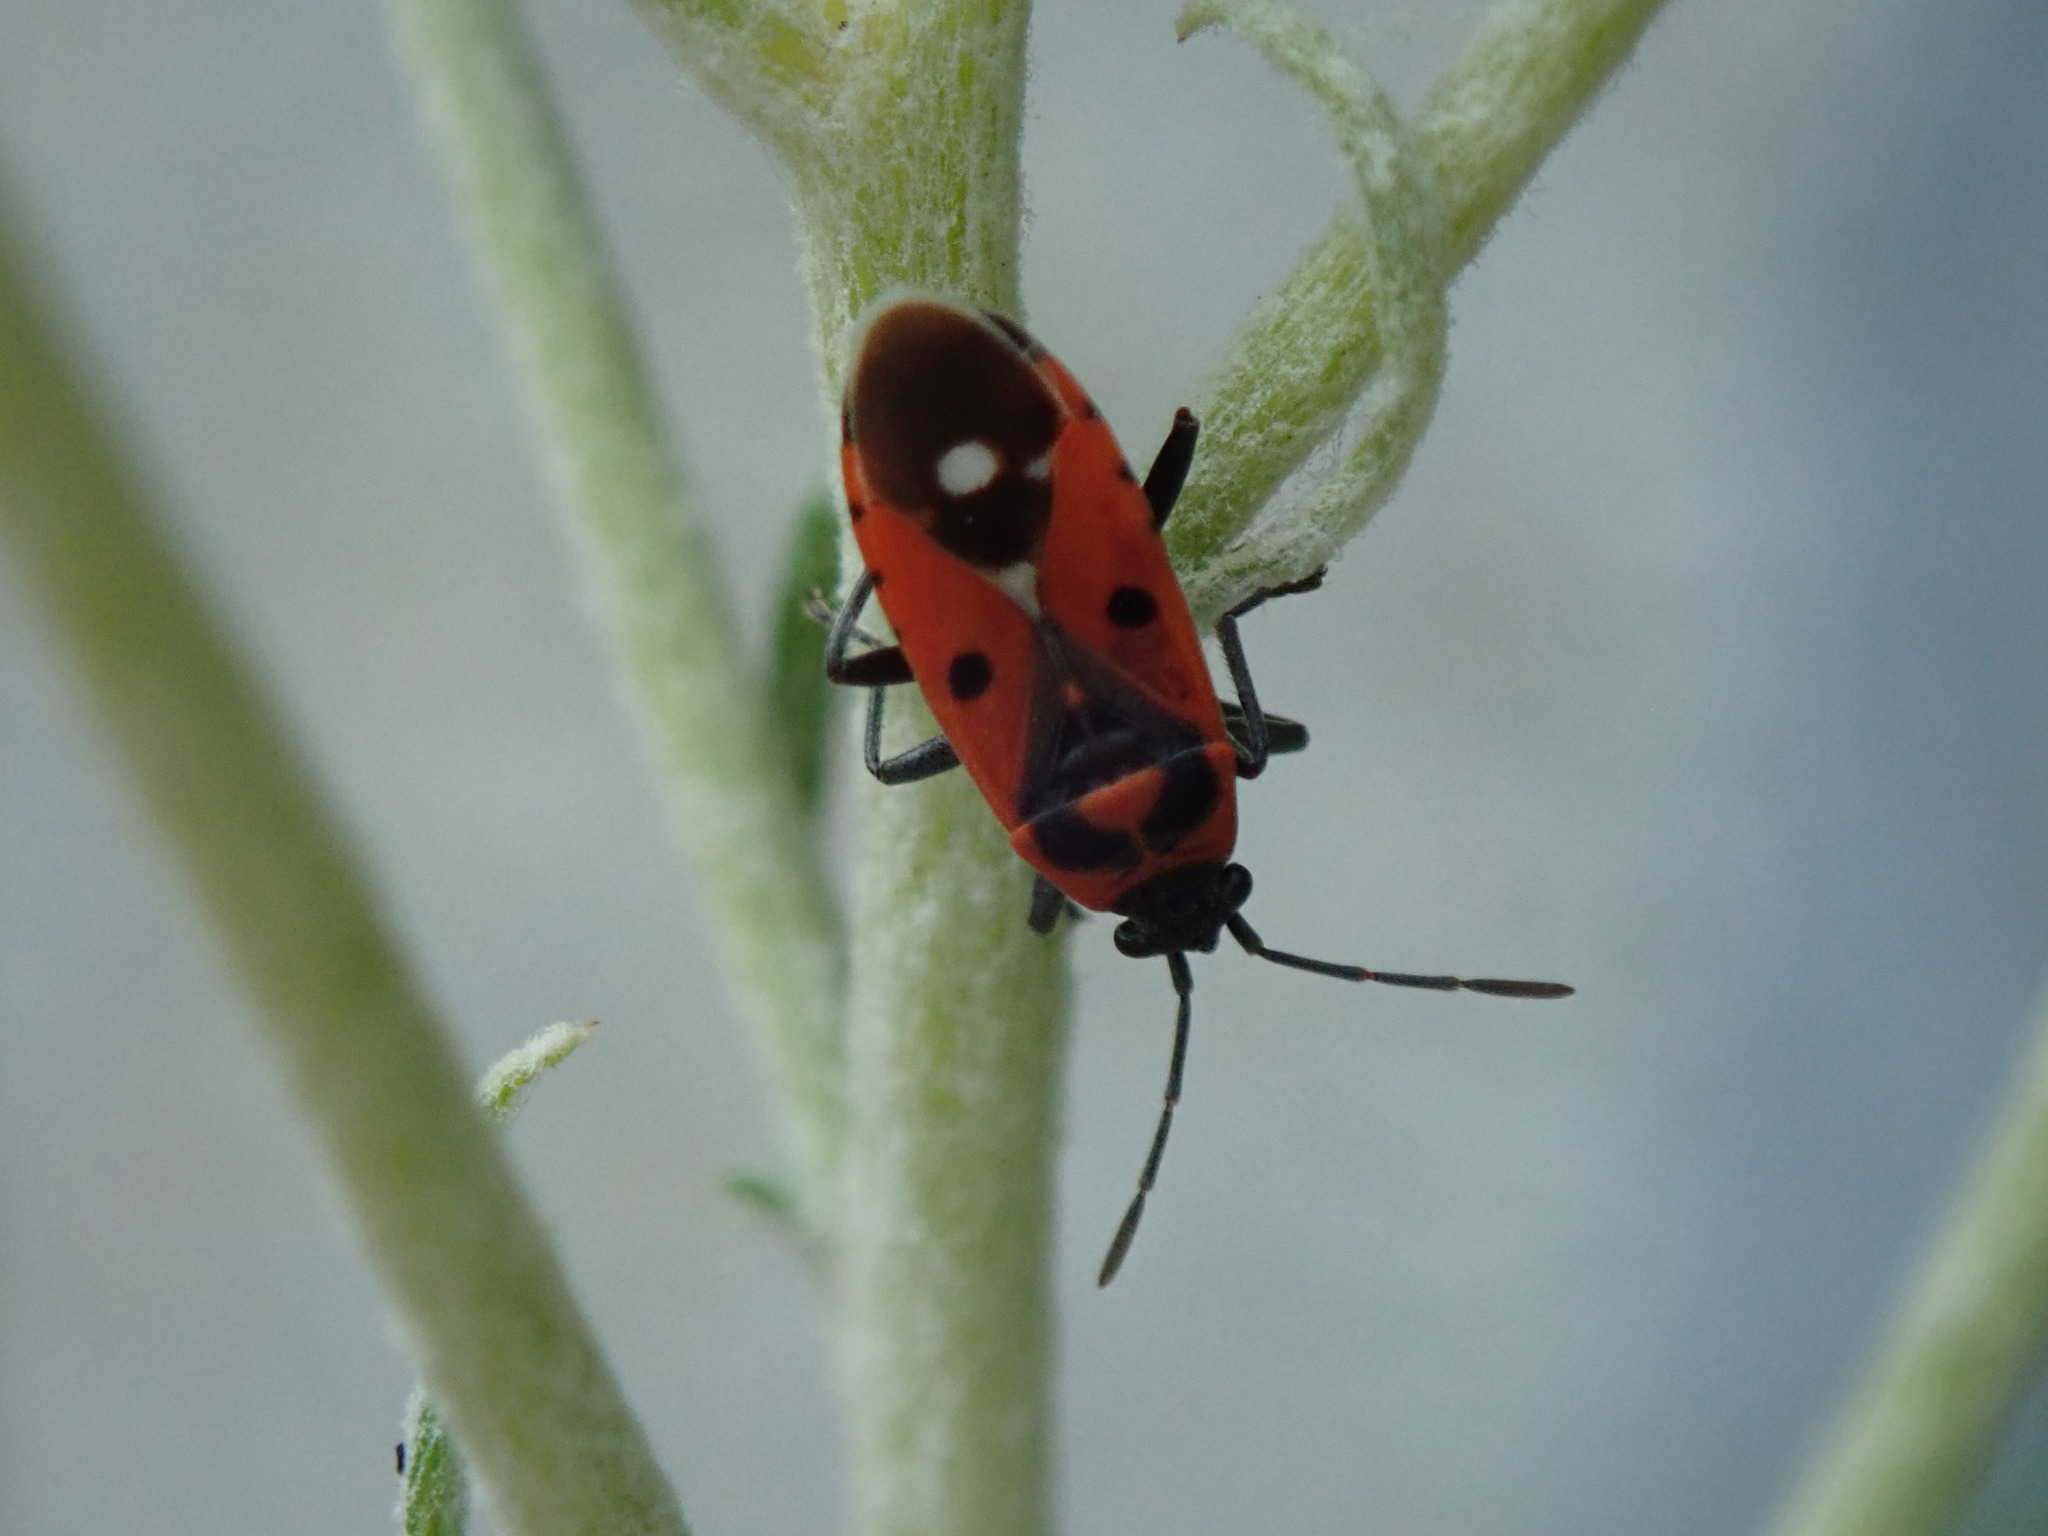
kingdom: Animalia
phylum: Arthropoda
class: Insecta
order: Hemiptera
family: Lygaeidae
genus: Melanocoryphus
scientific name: Melanocoryphus albomaculatus
